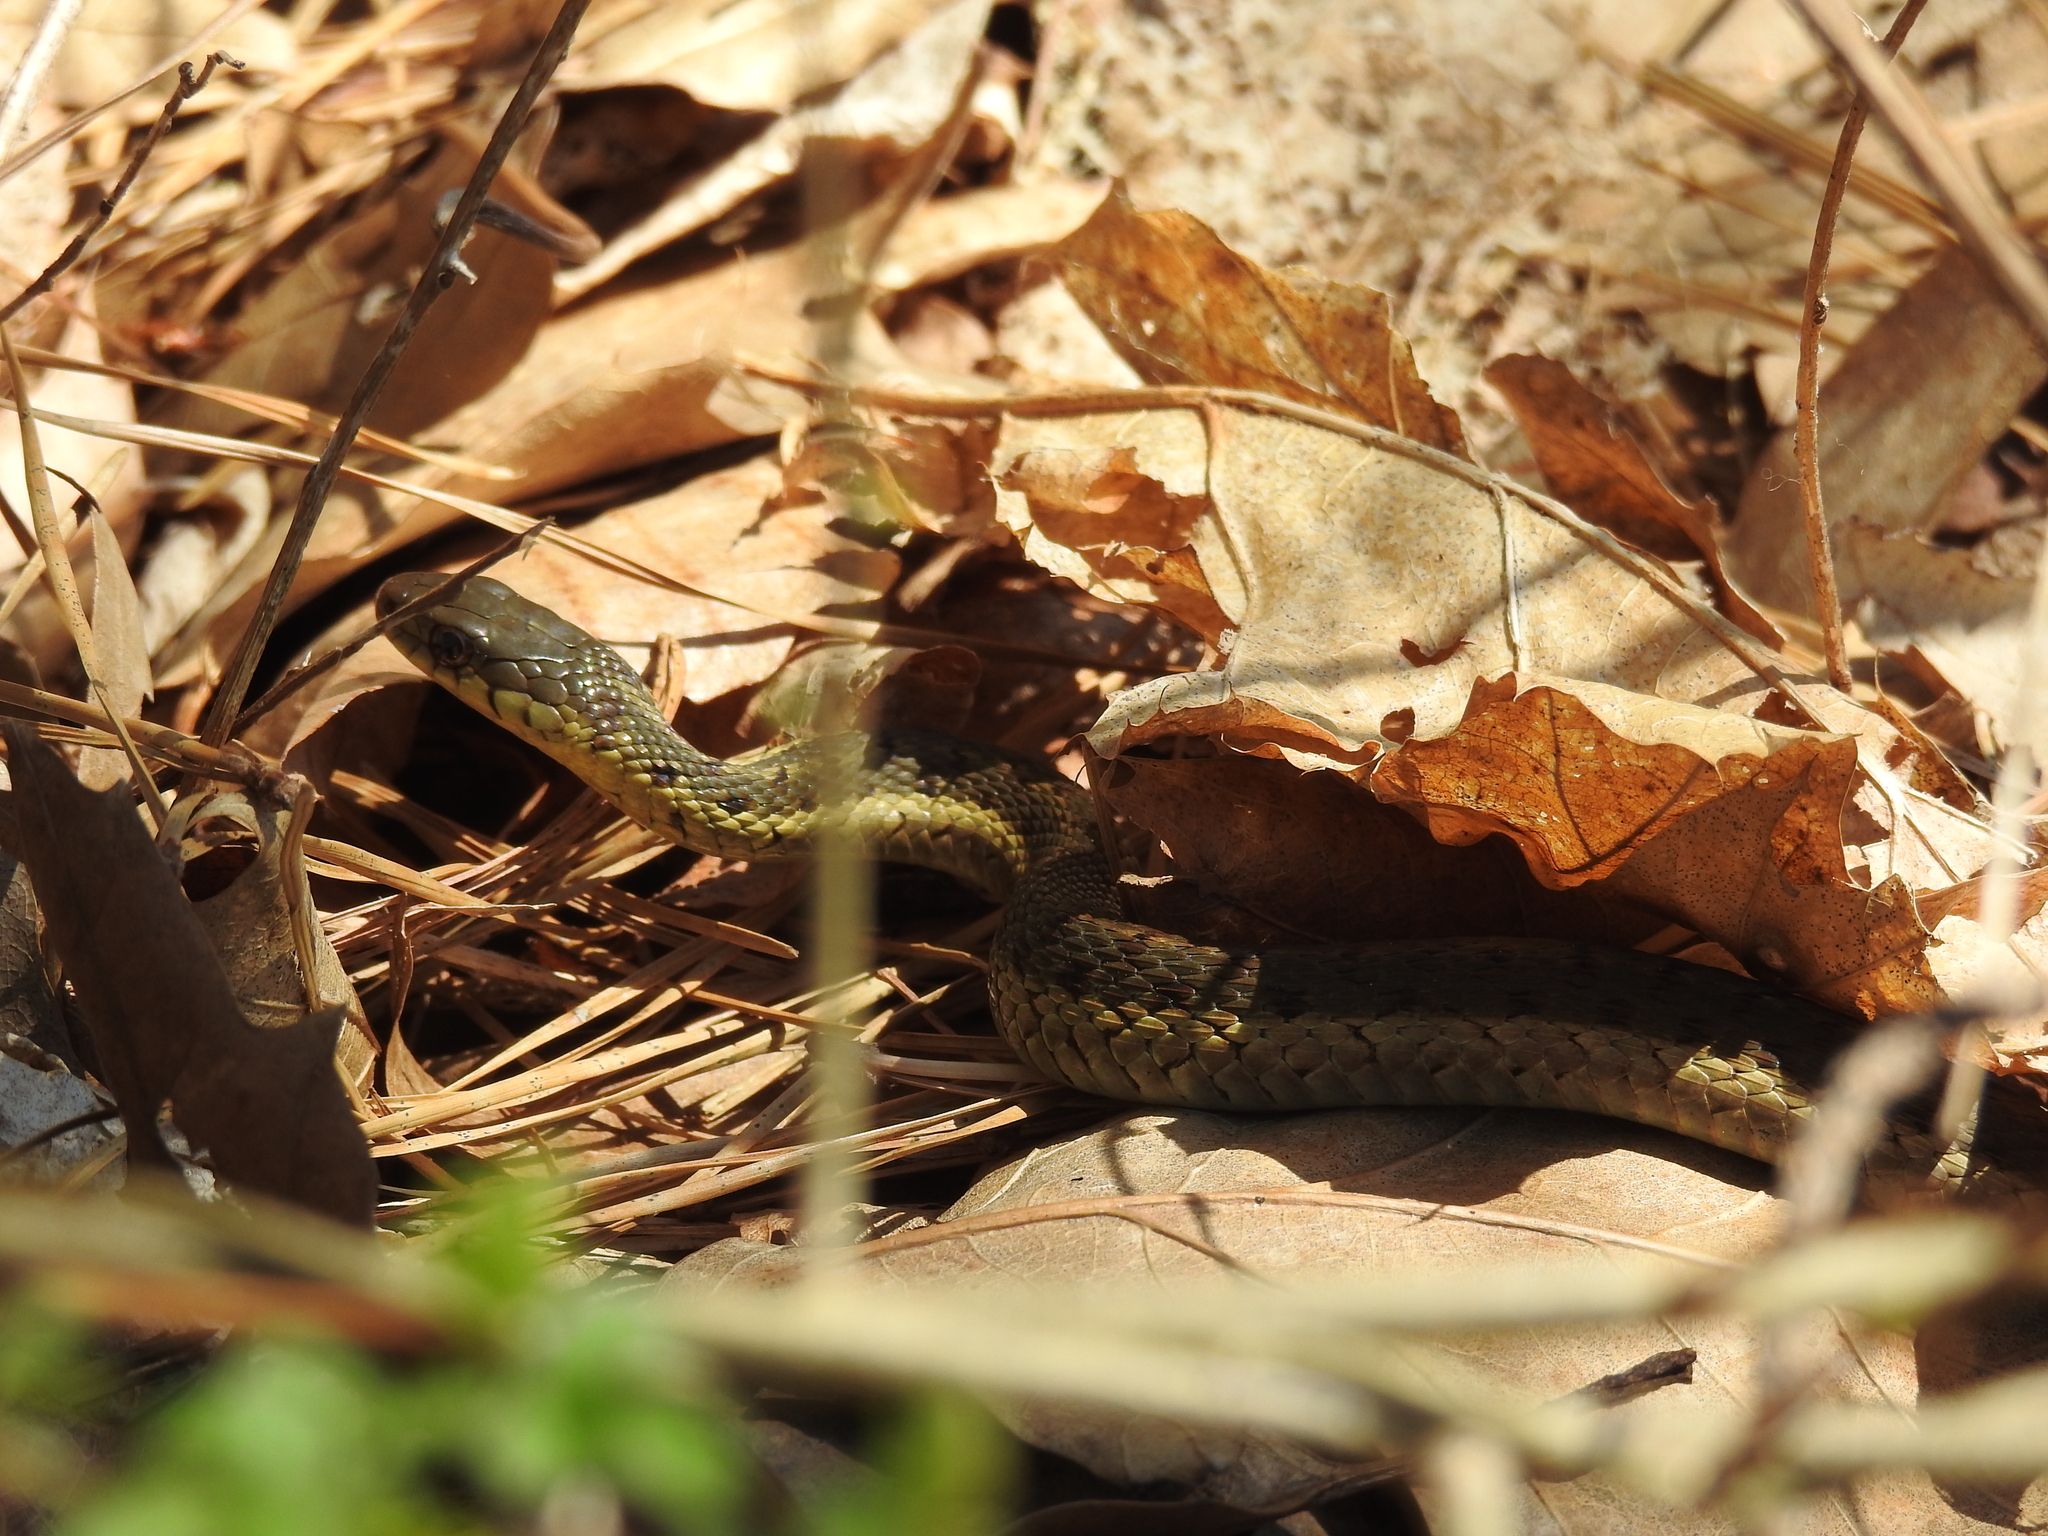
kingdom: Animalia
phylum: Chordata
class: Squamata
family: Colubridae
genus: Thamnophis
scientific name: Thamnophis sirtalis
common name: Common garter snake
